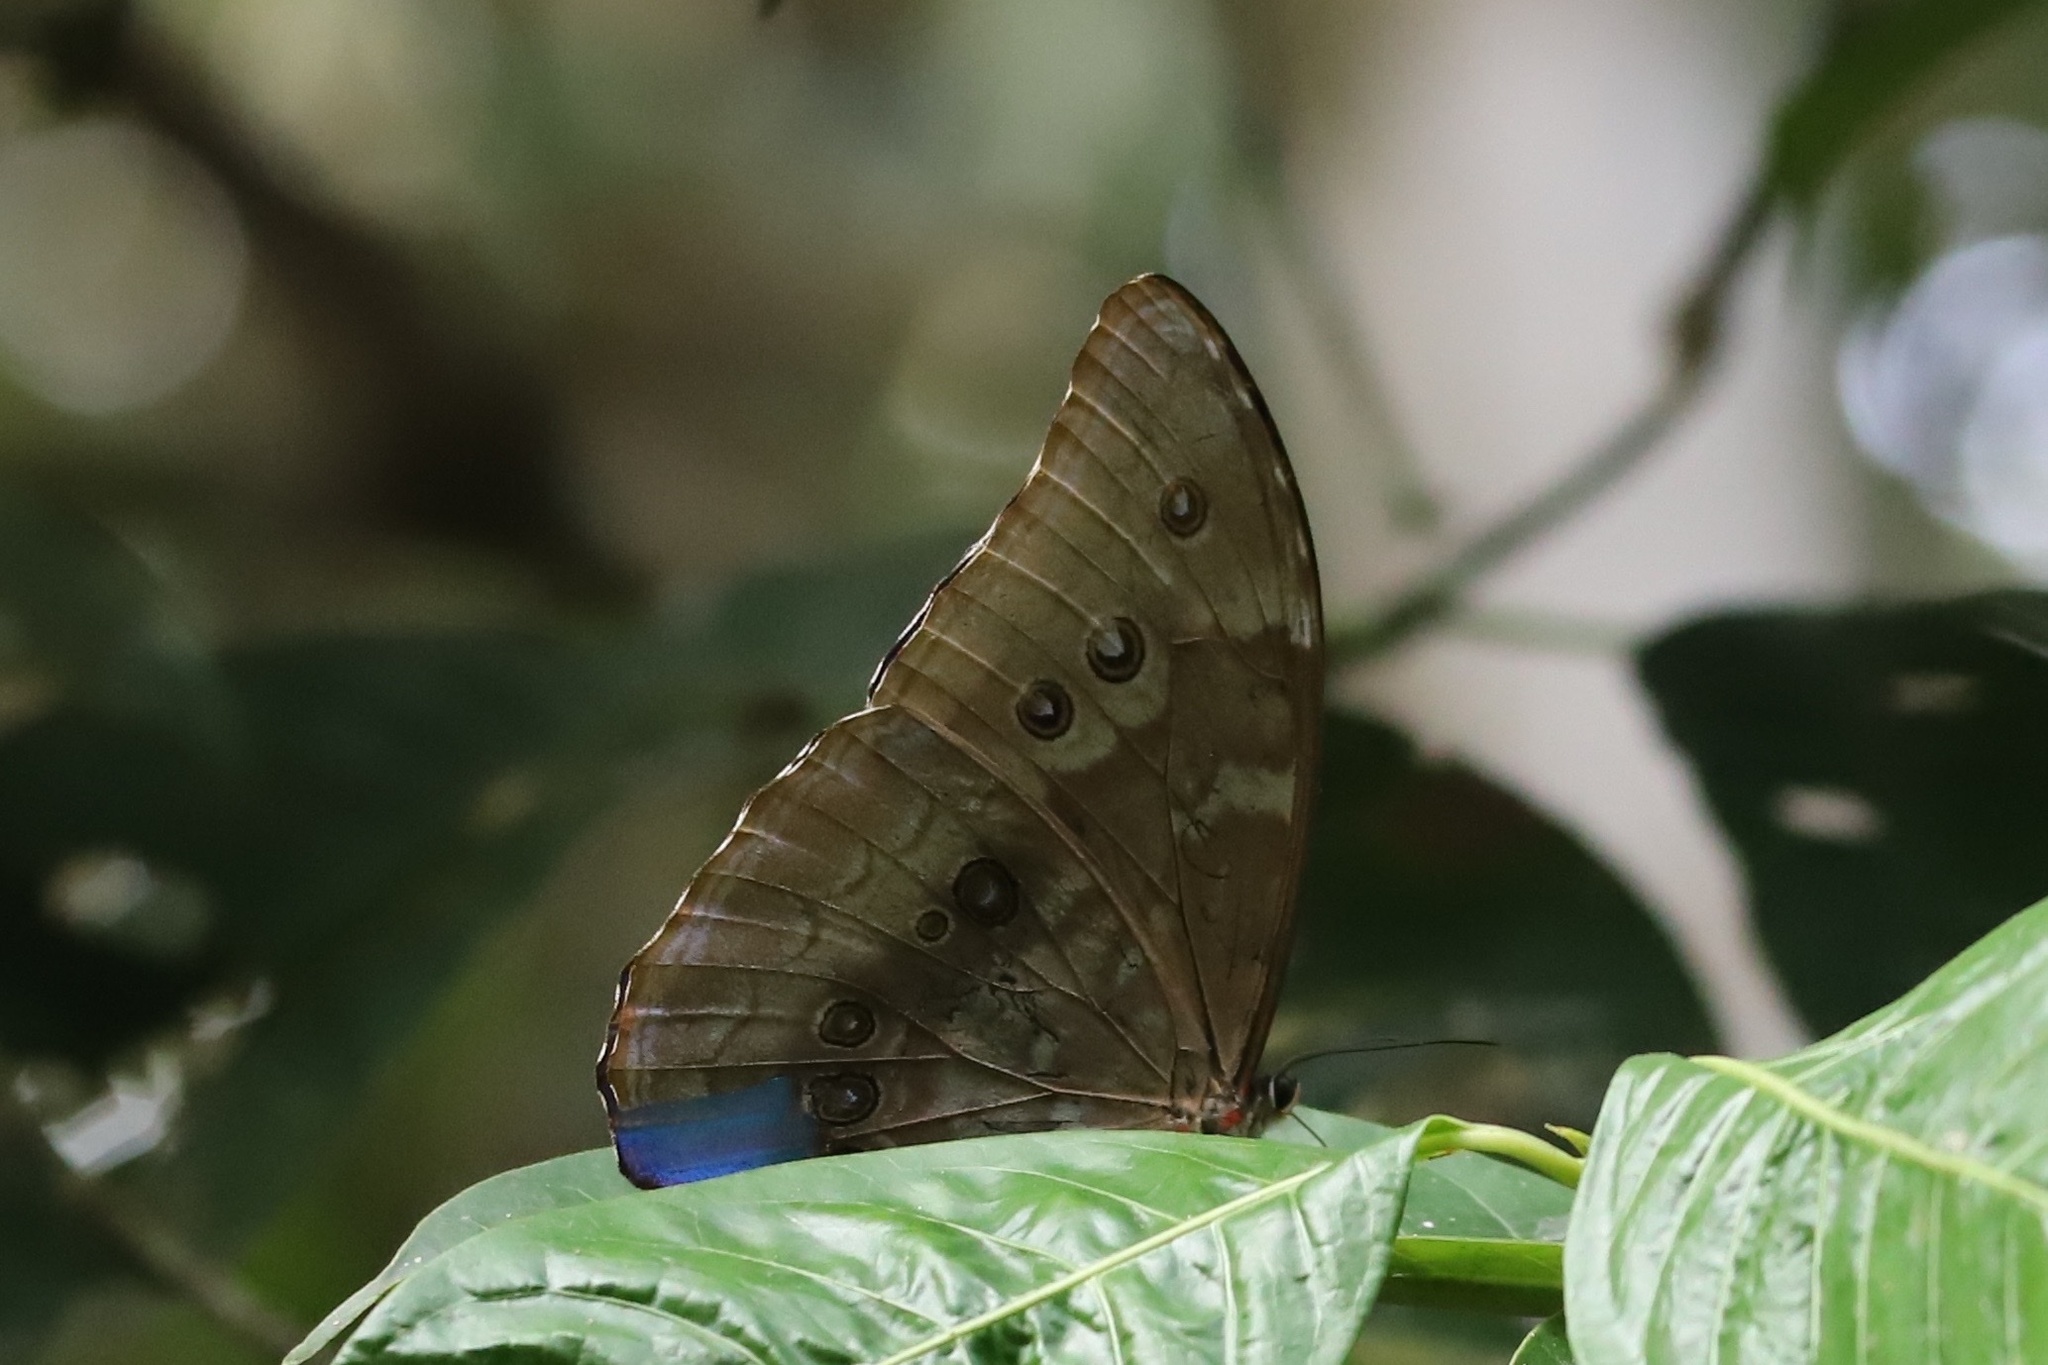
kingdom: Animalia
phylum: Arthropoda
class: Insecta
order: Lepidoptera
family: Nymphalidae
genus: Morpho
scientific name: Morpho amathonte
